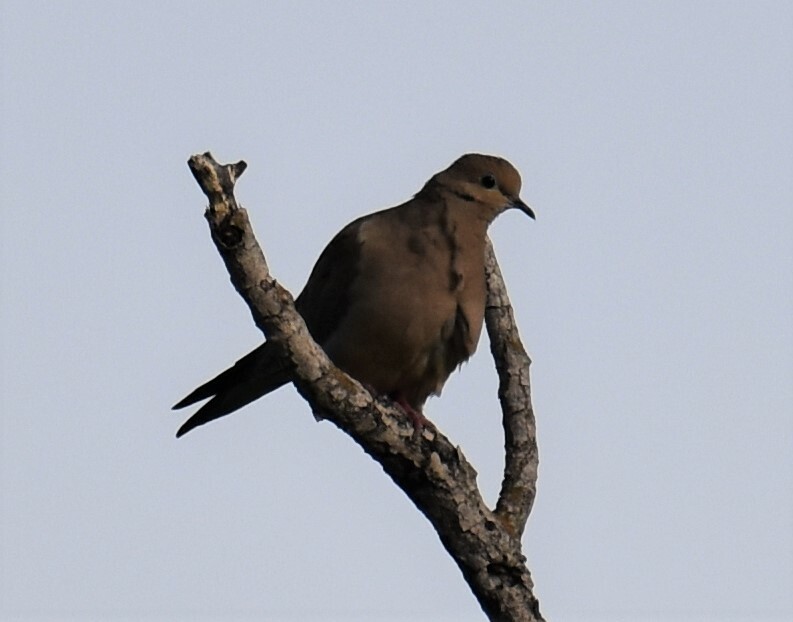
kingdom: Animalia
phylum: Chordata
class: Aves
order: Columbiformes
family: Columbidae
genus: Zenaida
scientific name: Zenaida macroura
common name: Mourning dove
